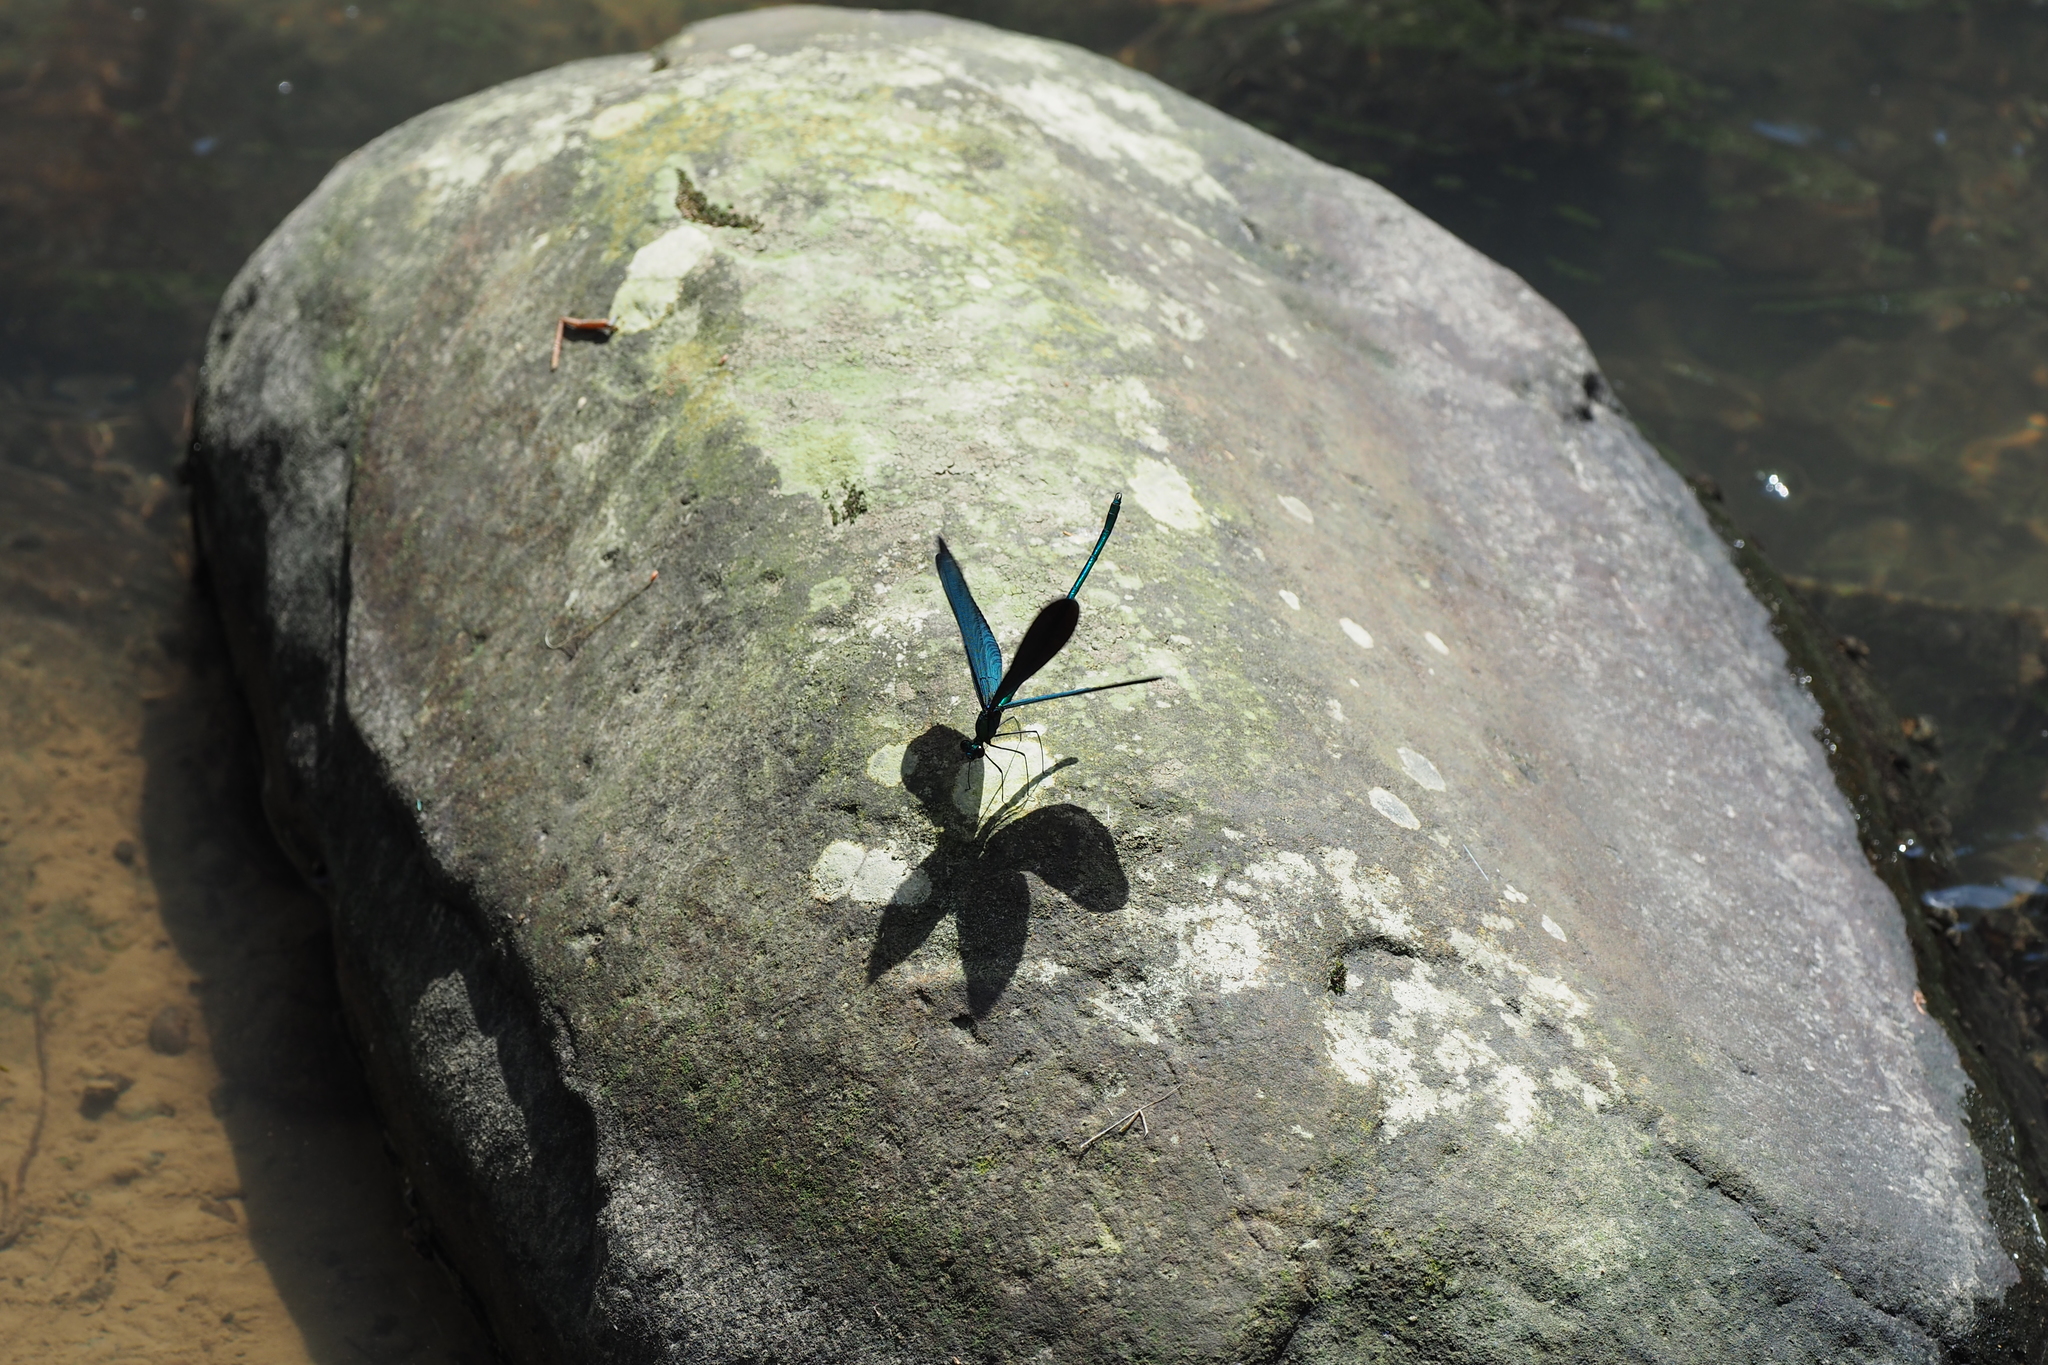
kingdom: Animalia
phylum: Arthropoda
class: Insecta
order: Odonata
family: Calopterygidae
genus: Matrona
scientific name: Matrona cyanoptera
